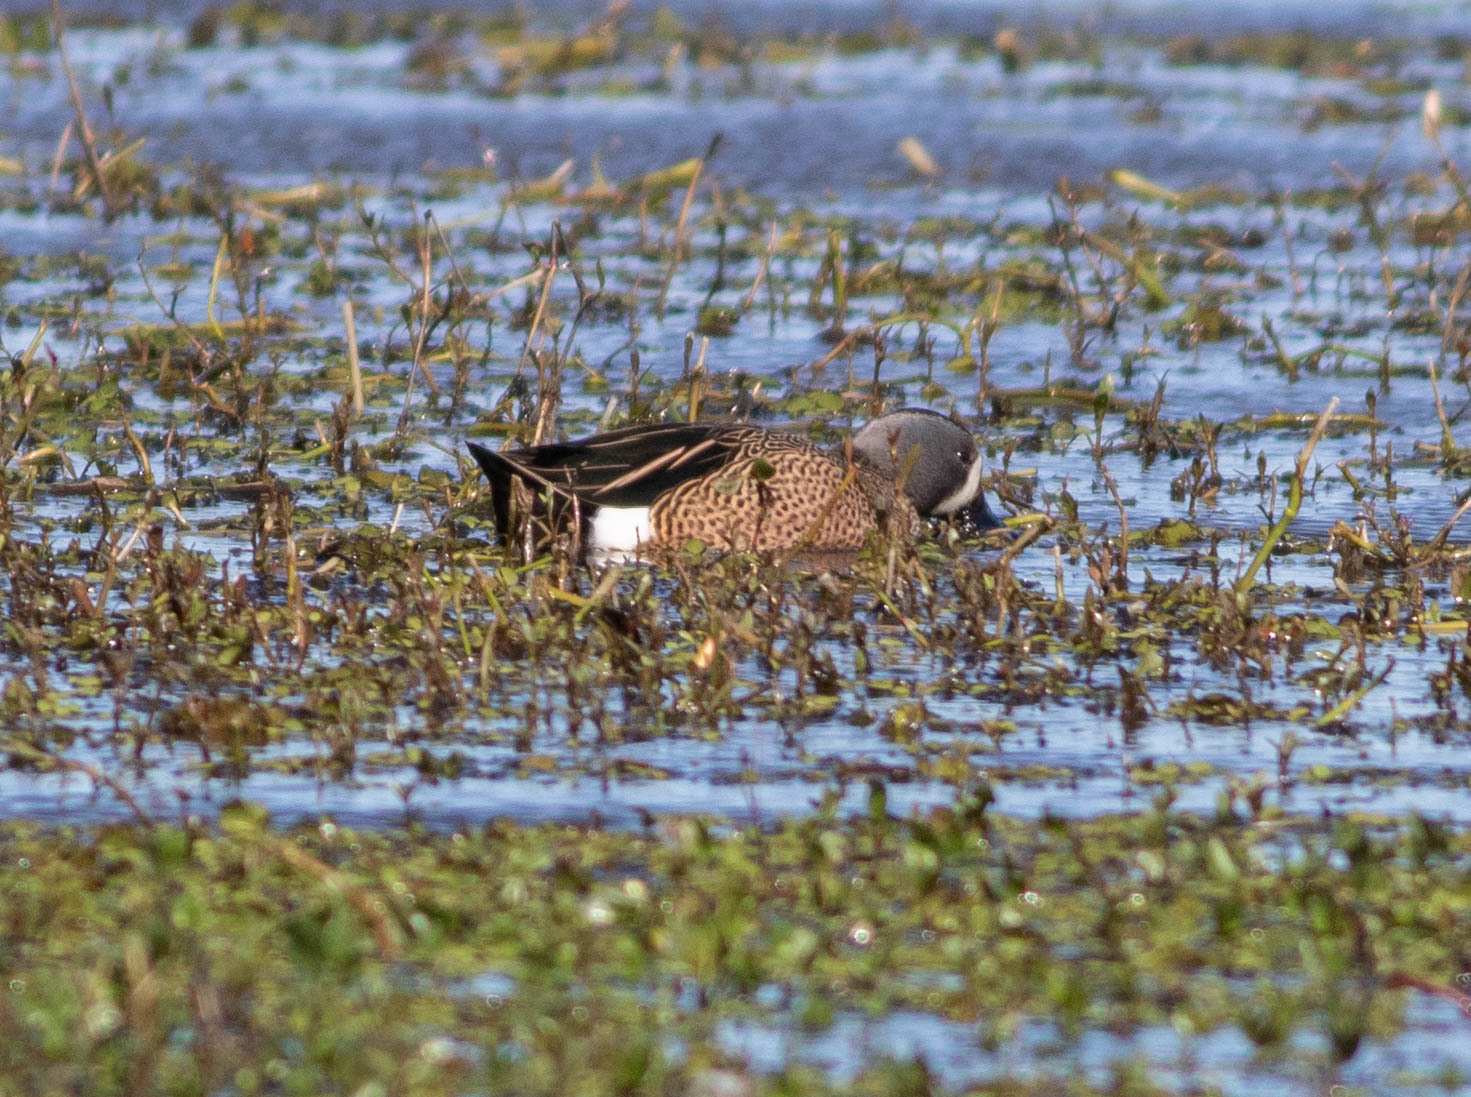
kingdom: Animalia
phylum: Chordata
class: Aves
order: Anseriformes
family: Anatidae
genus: Spatula
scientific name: Spatula discors
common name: Blue-winged teal
